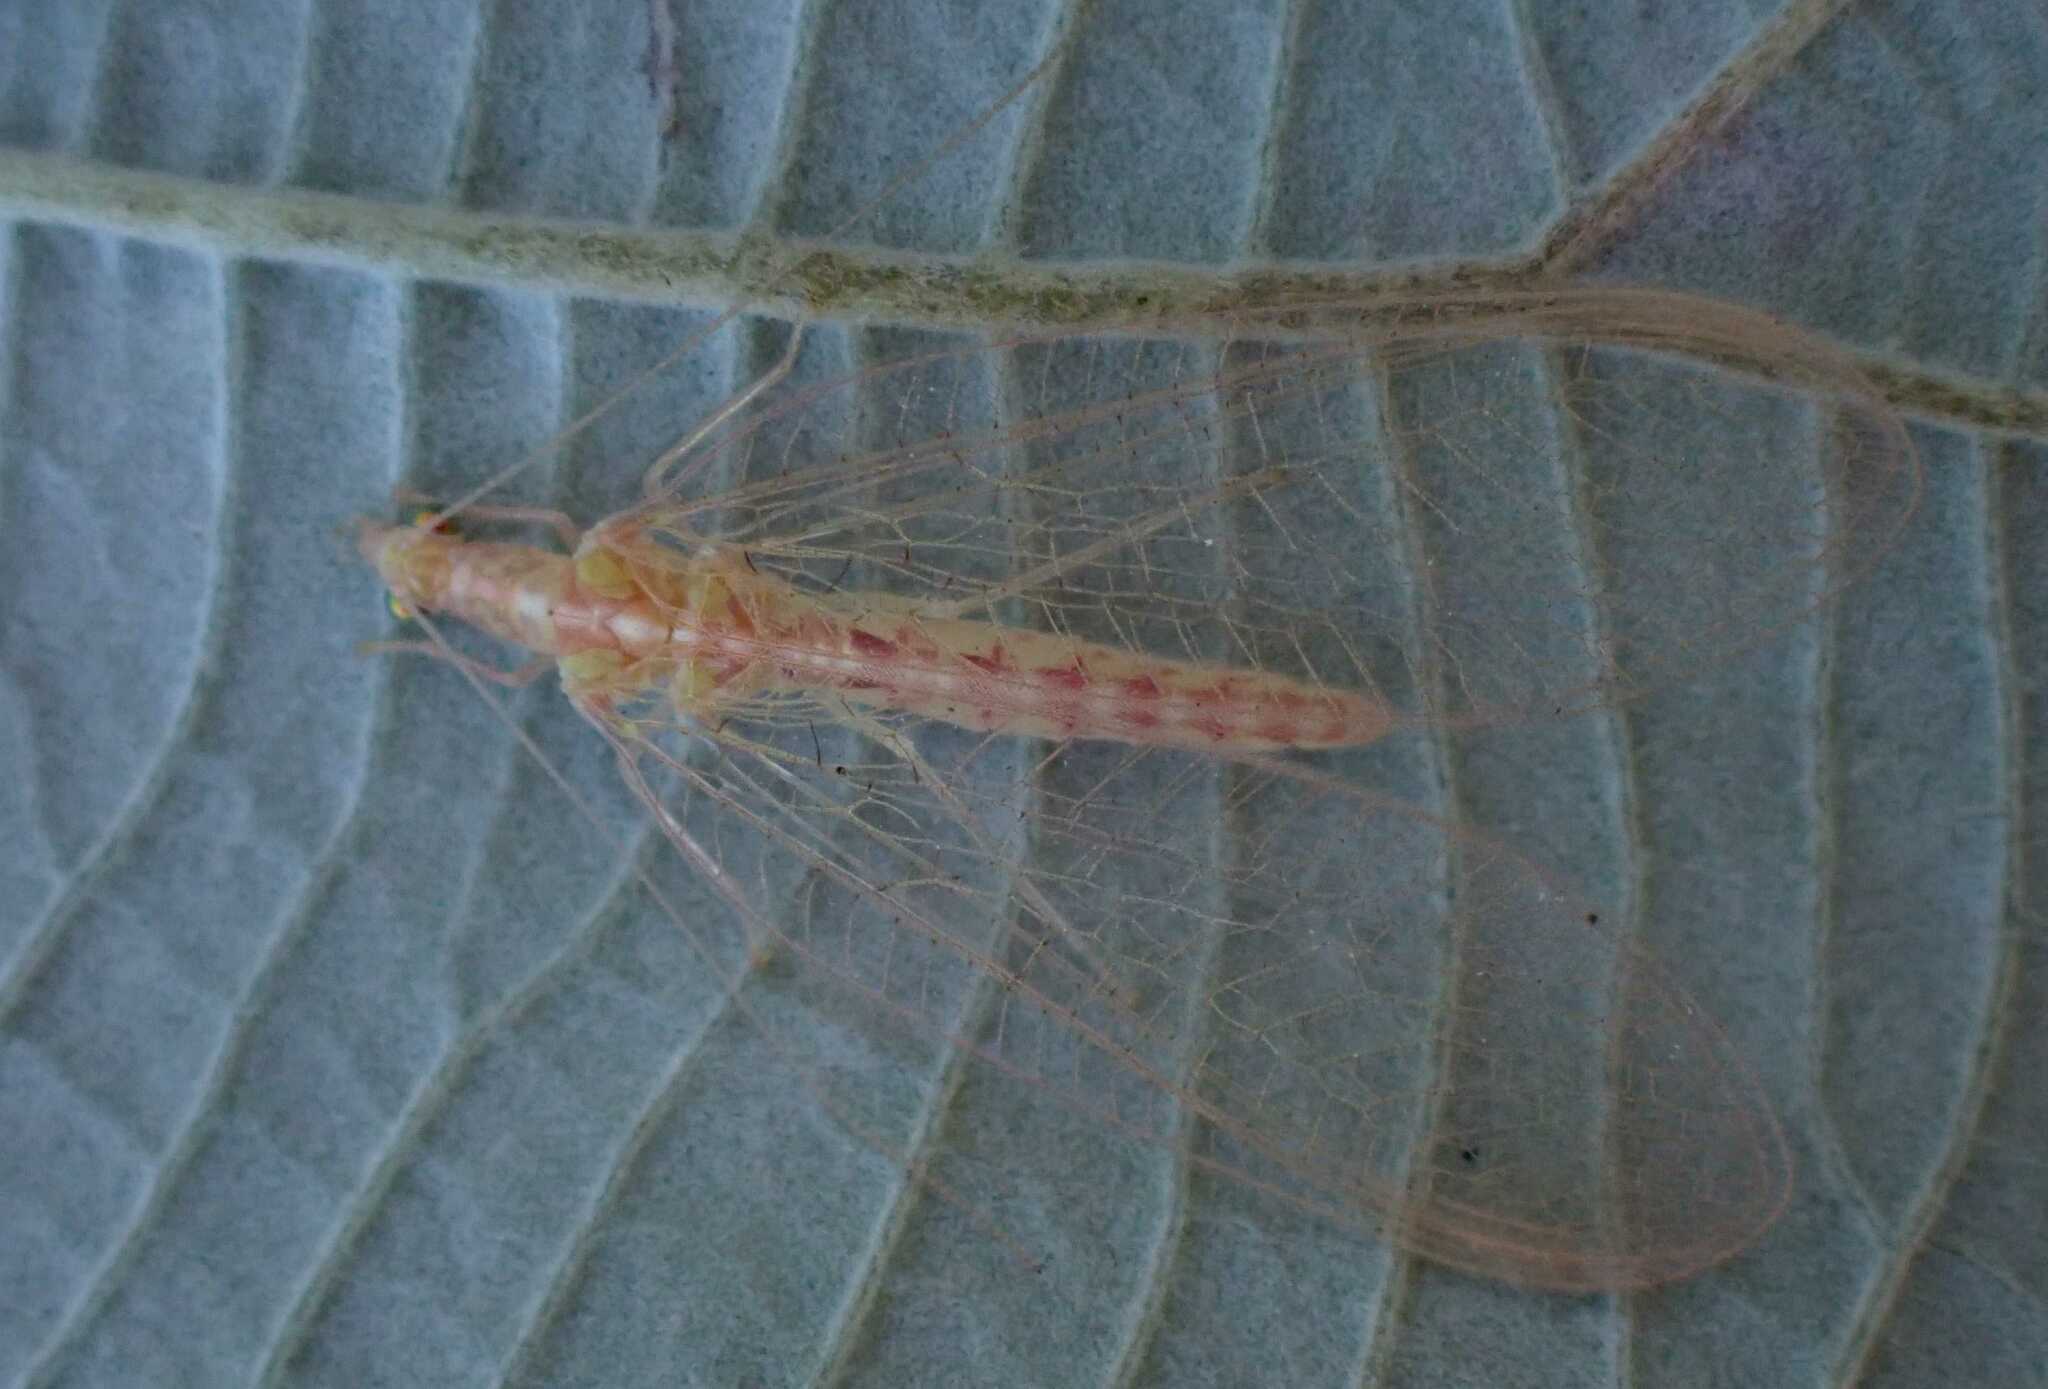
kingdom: Animalia
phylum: Arthropoda
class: Insecta
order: Neuroptera
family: Chrysopidae
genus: Chrysoperla
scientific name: Chrysoperla
